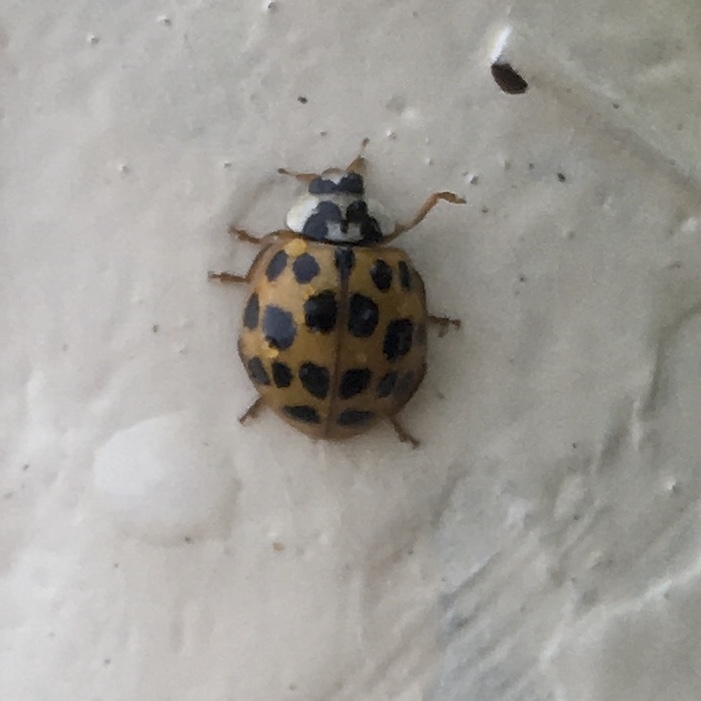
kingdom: Animalia
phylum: Arthropoda
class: Insecta
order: Coleoptera
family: Coccinellidae
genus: Harmonia
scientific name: Harmonia axyridis
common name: Harlequin ladybird
